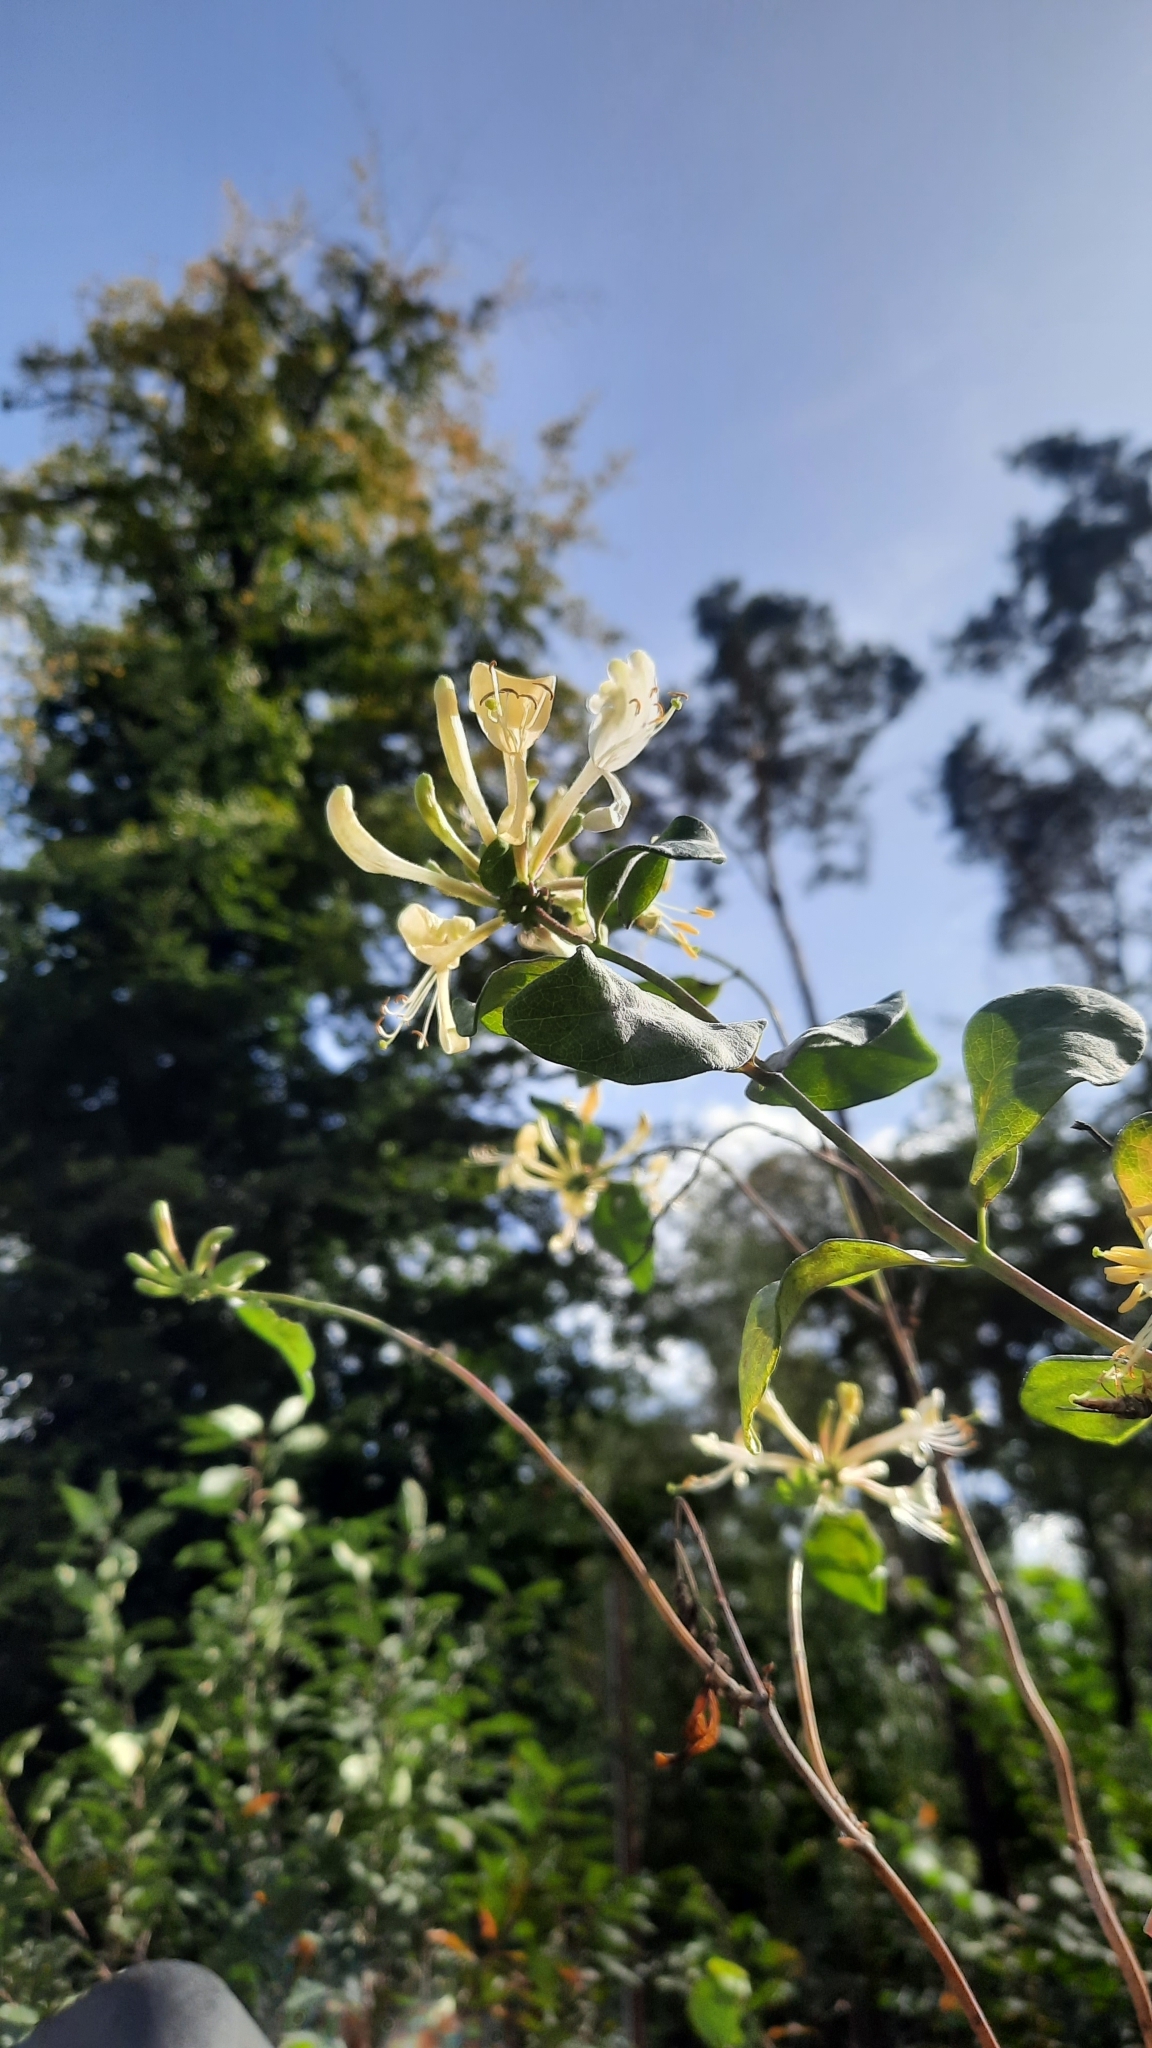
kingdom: Plantae
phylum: Tracheophyta
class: Magnoliopsida
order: Dipsacales
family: Caprifoliaceae
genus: Lonicera
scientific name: Lonicera periclymenum
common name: European honeysuckle
